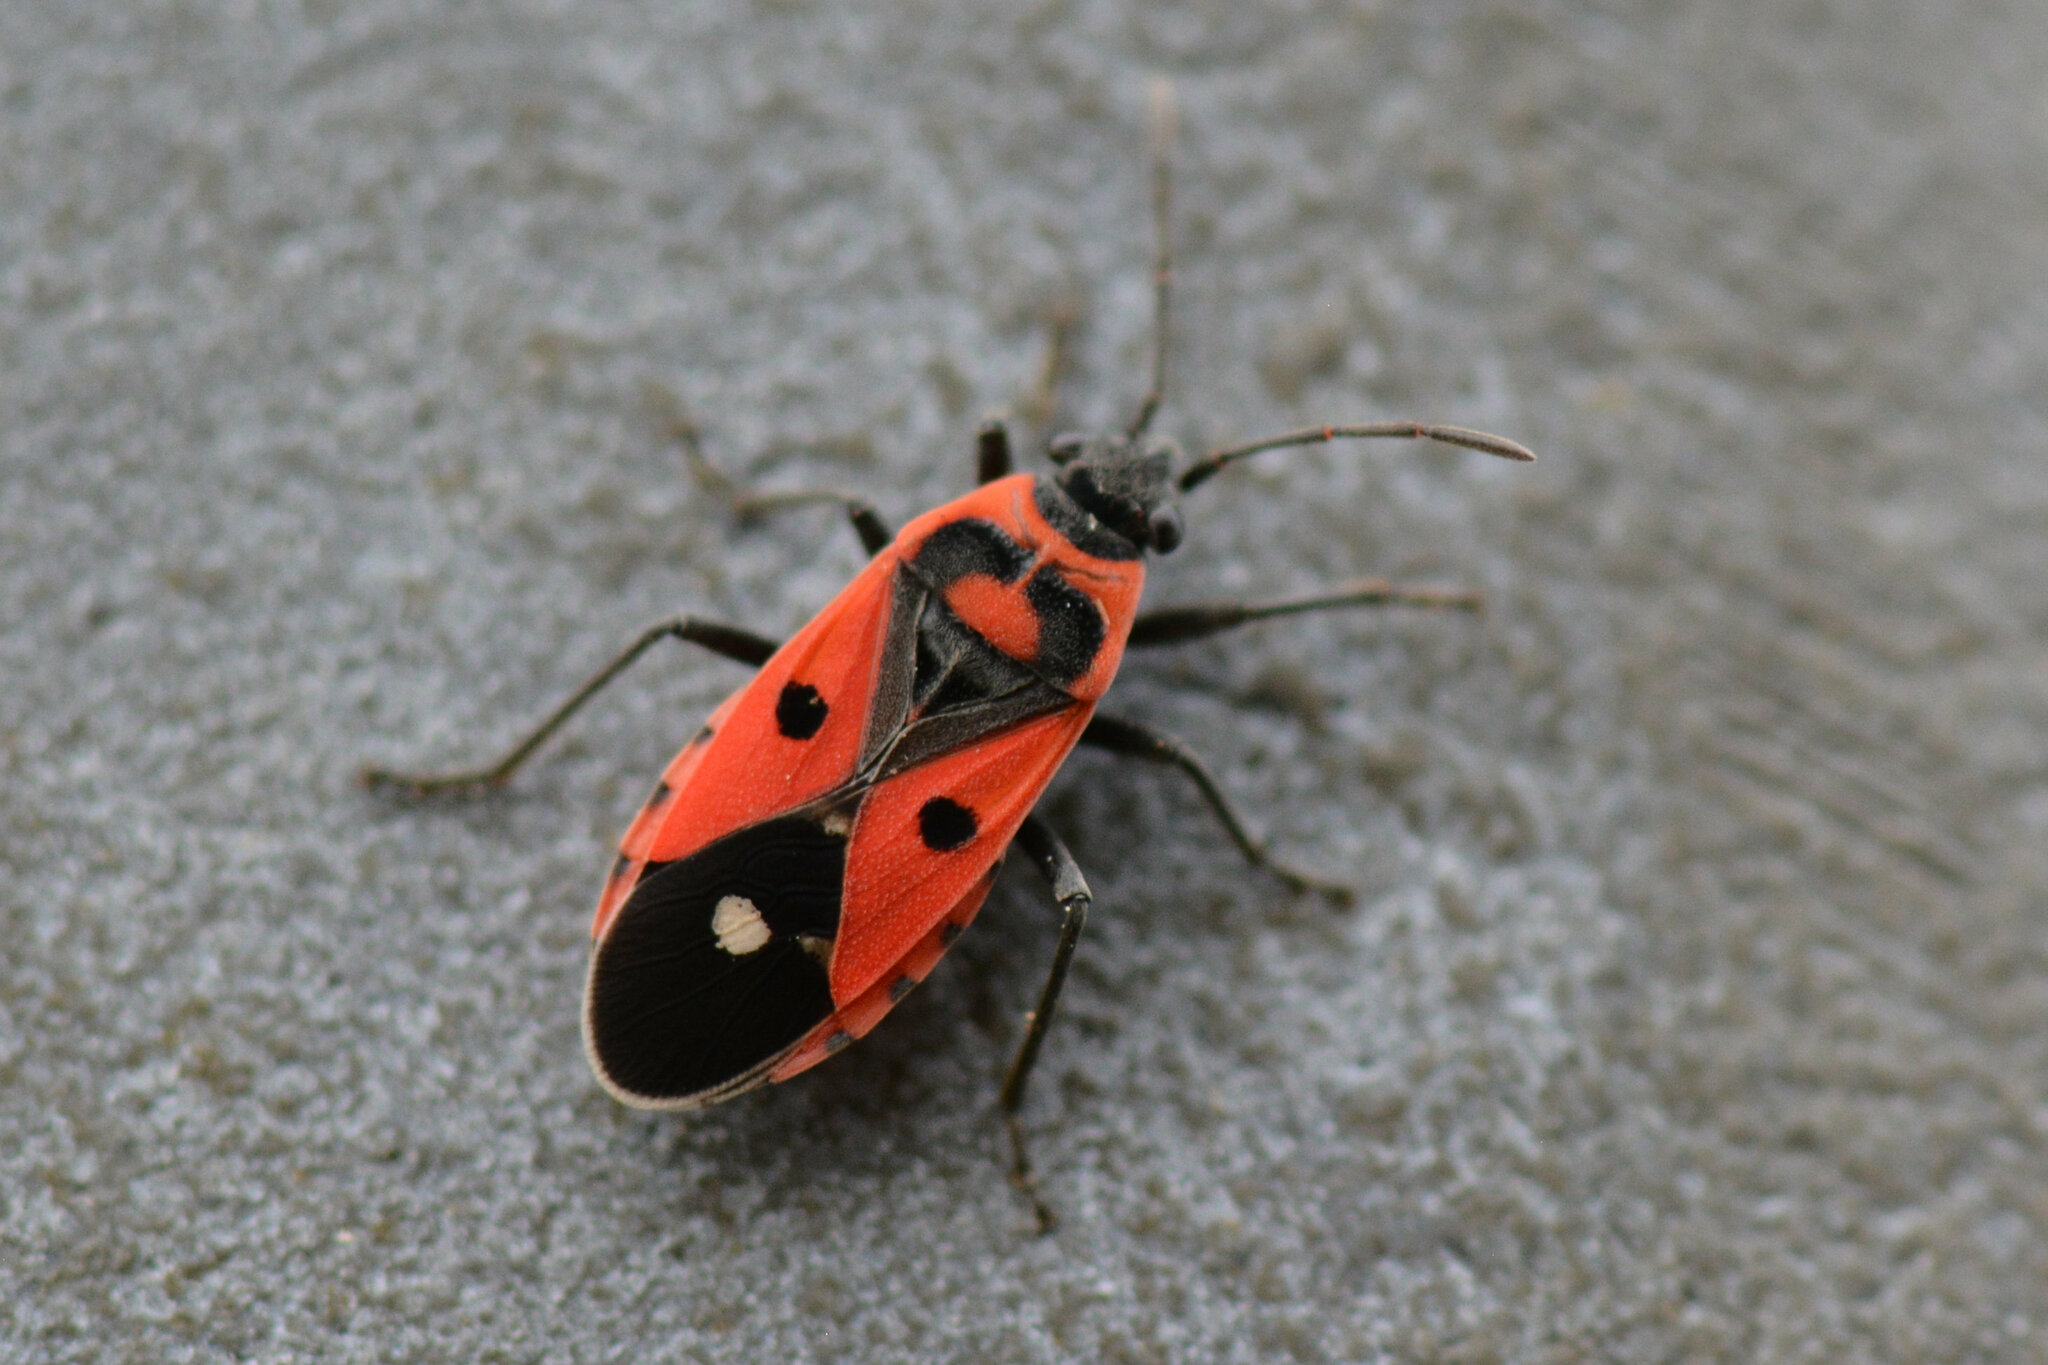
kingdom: Animalia
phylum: Arthropoda
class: Insecta
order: Hemiptera
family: Lygaeidae
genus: Melanocoryphus
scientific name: Melanocoryphus albomaculatus
